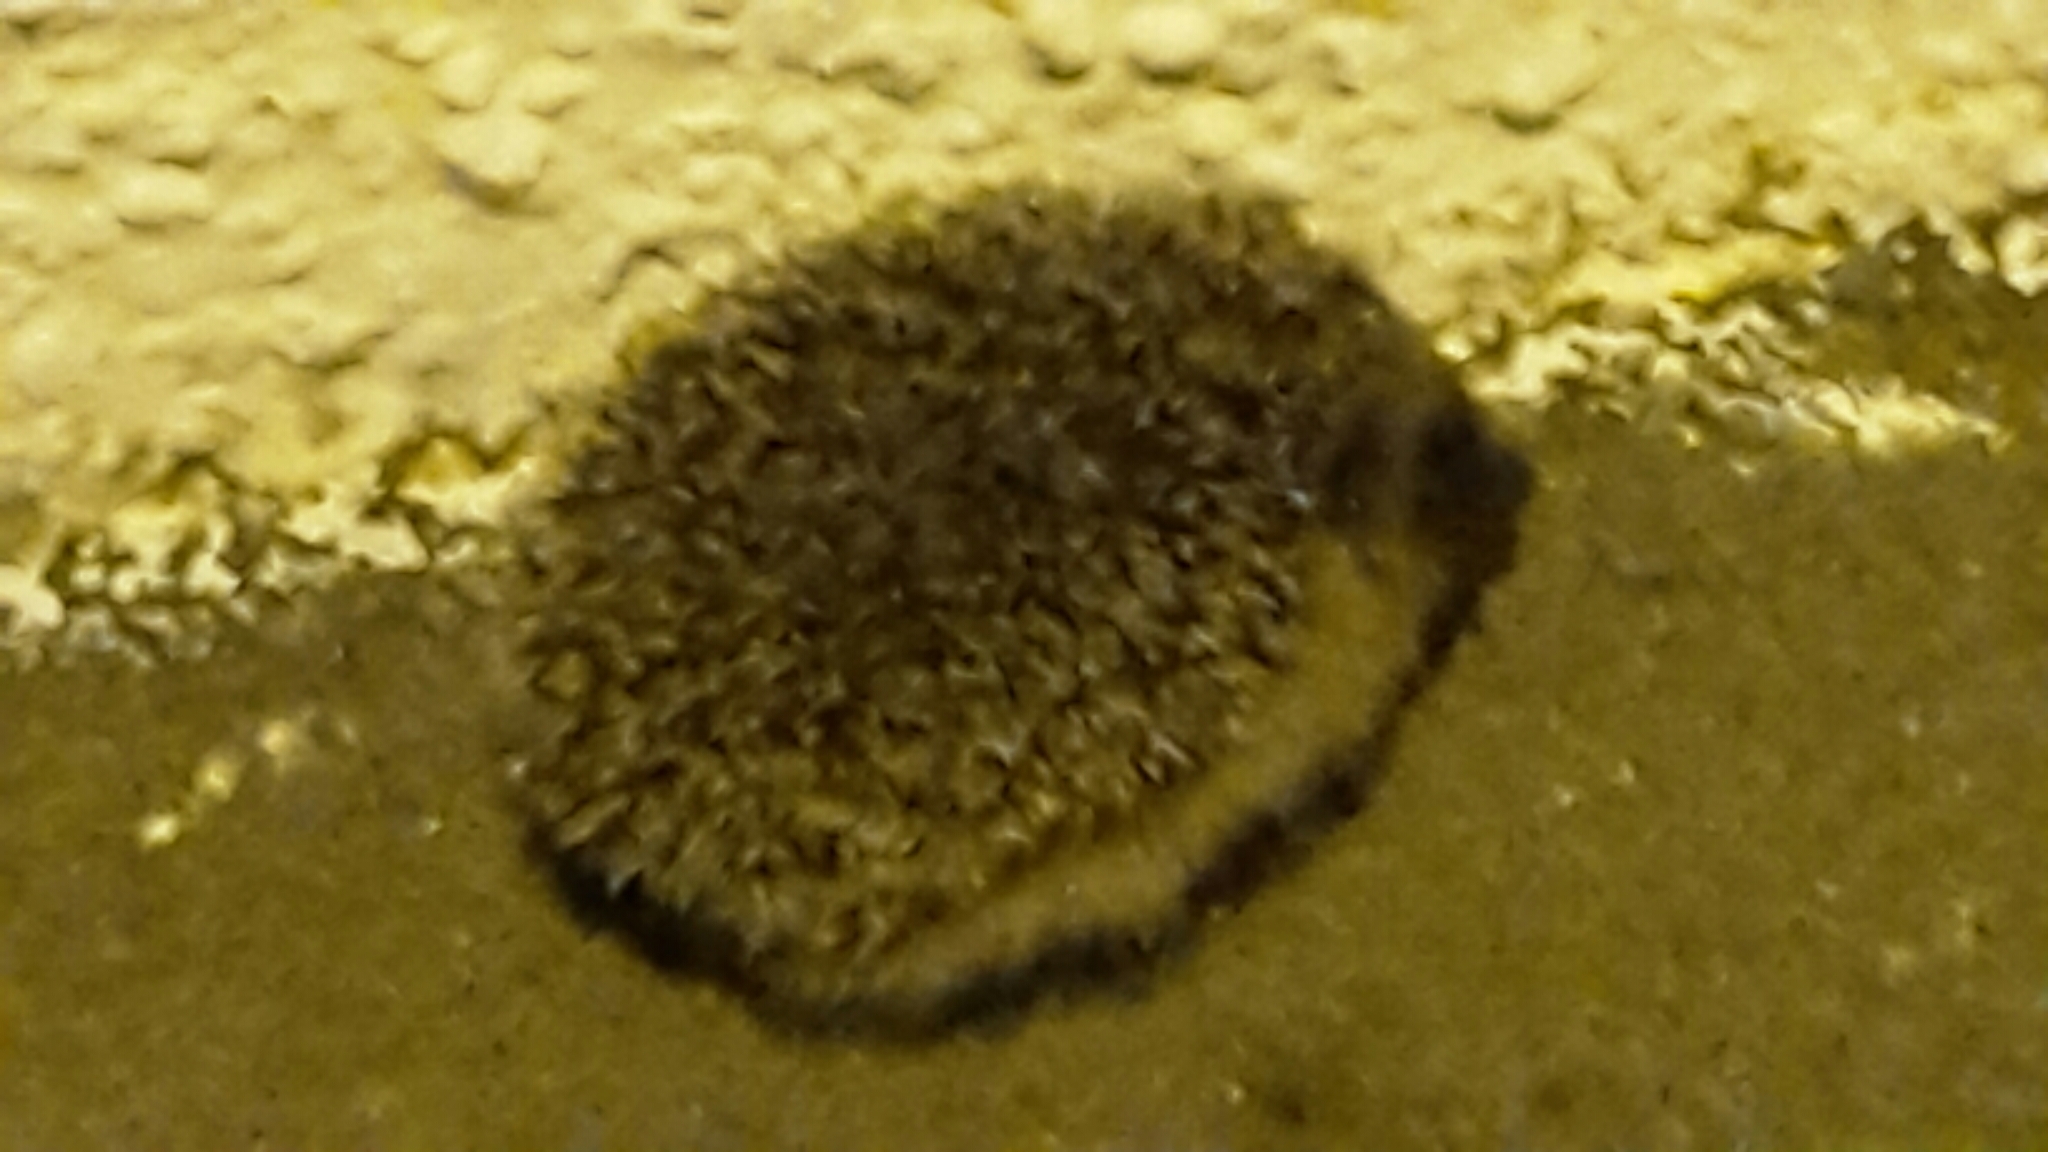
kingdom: Animalia
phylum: Chordata
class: Mammalia
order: Erinaceomorpha
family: Erinaceidae
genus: Erinaceus
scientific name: Erinaceus europaeus
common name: West european hedgehog
